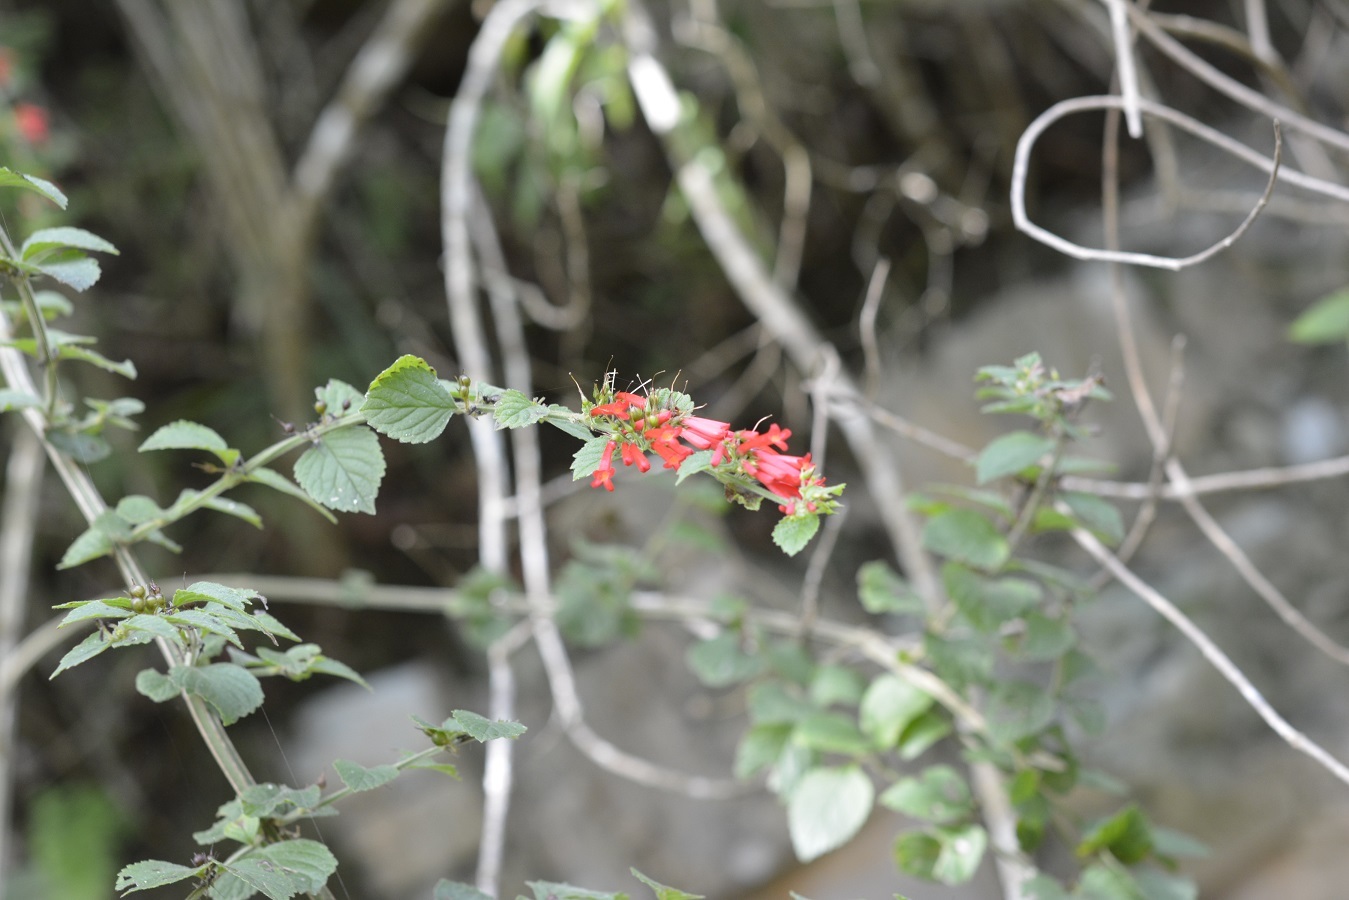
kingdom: Plantae
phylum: Tracheophyta
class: Magnoliopsida
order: Lamiales
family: Plantaginaceae
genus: Russelia
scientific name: Russelia sarmentosa
